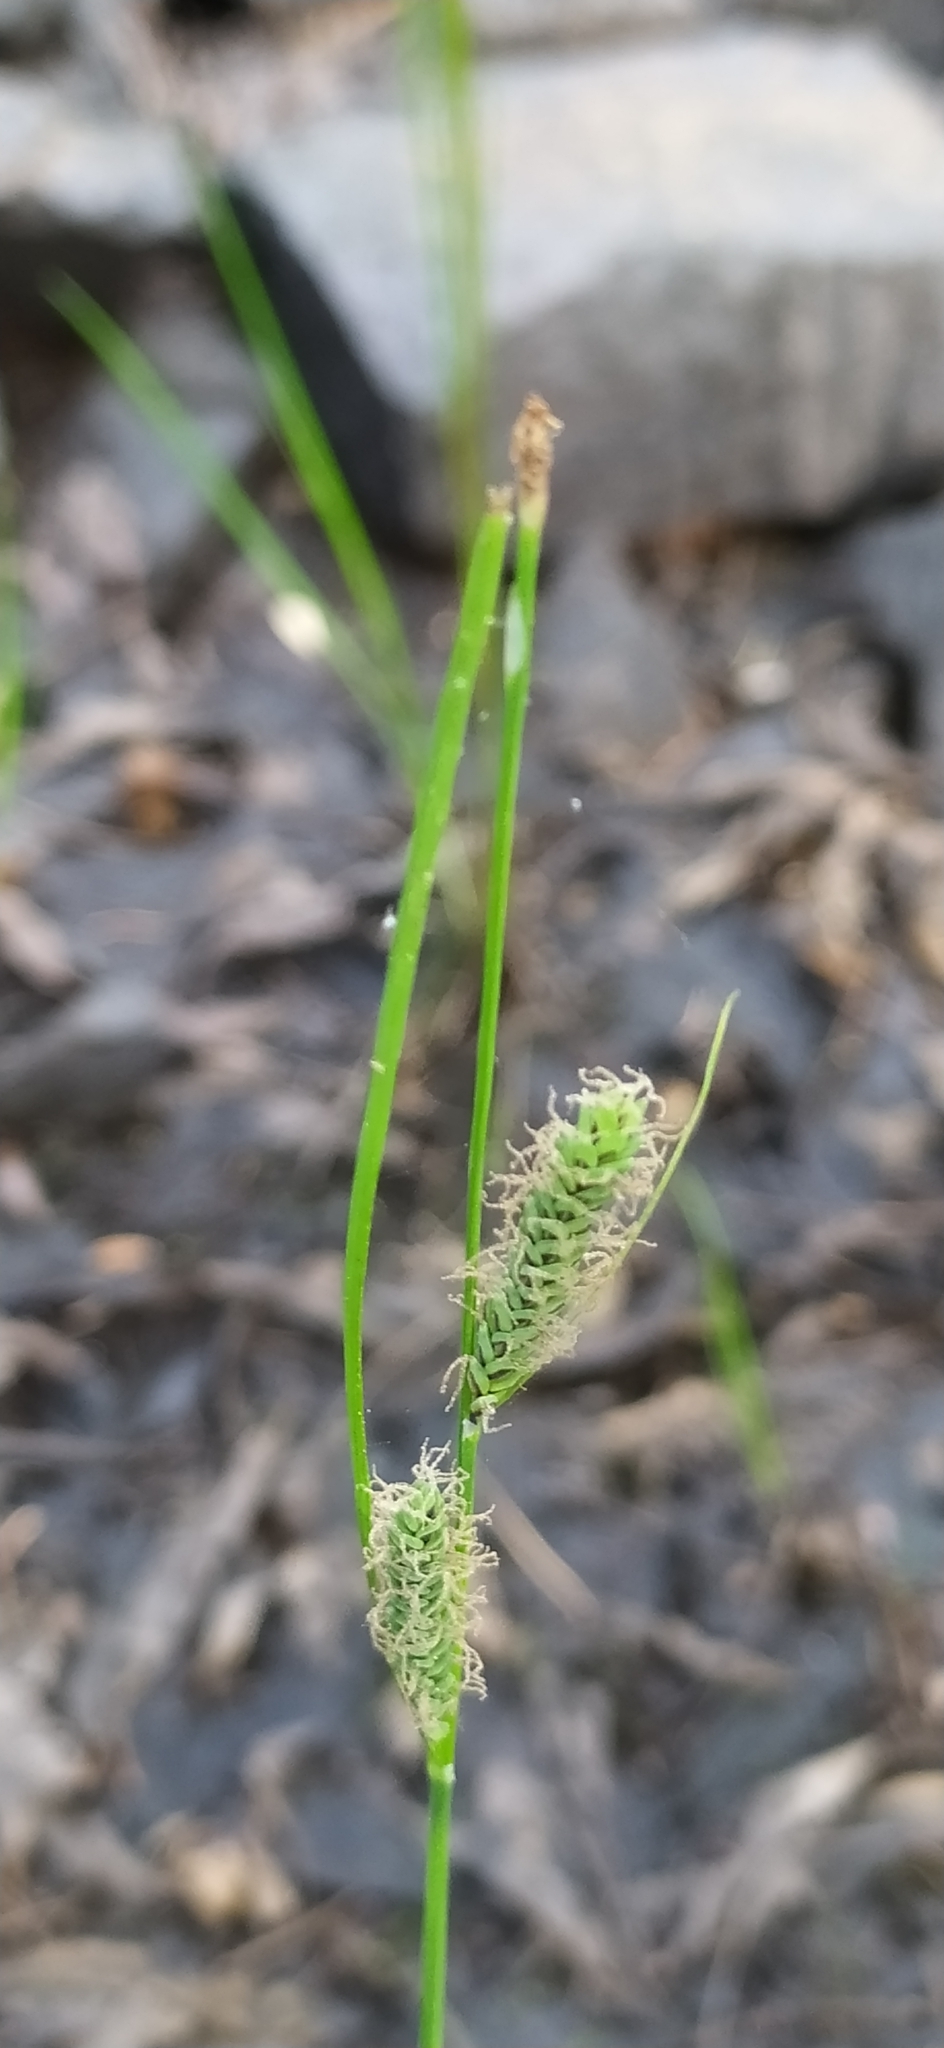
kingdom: Plantae
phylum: Tracheophyta
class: Liliopsida
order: Poales
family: Cyperaceae
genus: Carex
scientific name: Carex nigra
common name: Common sedge
